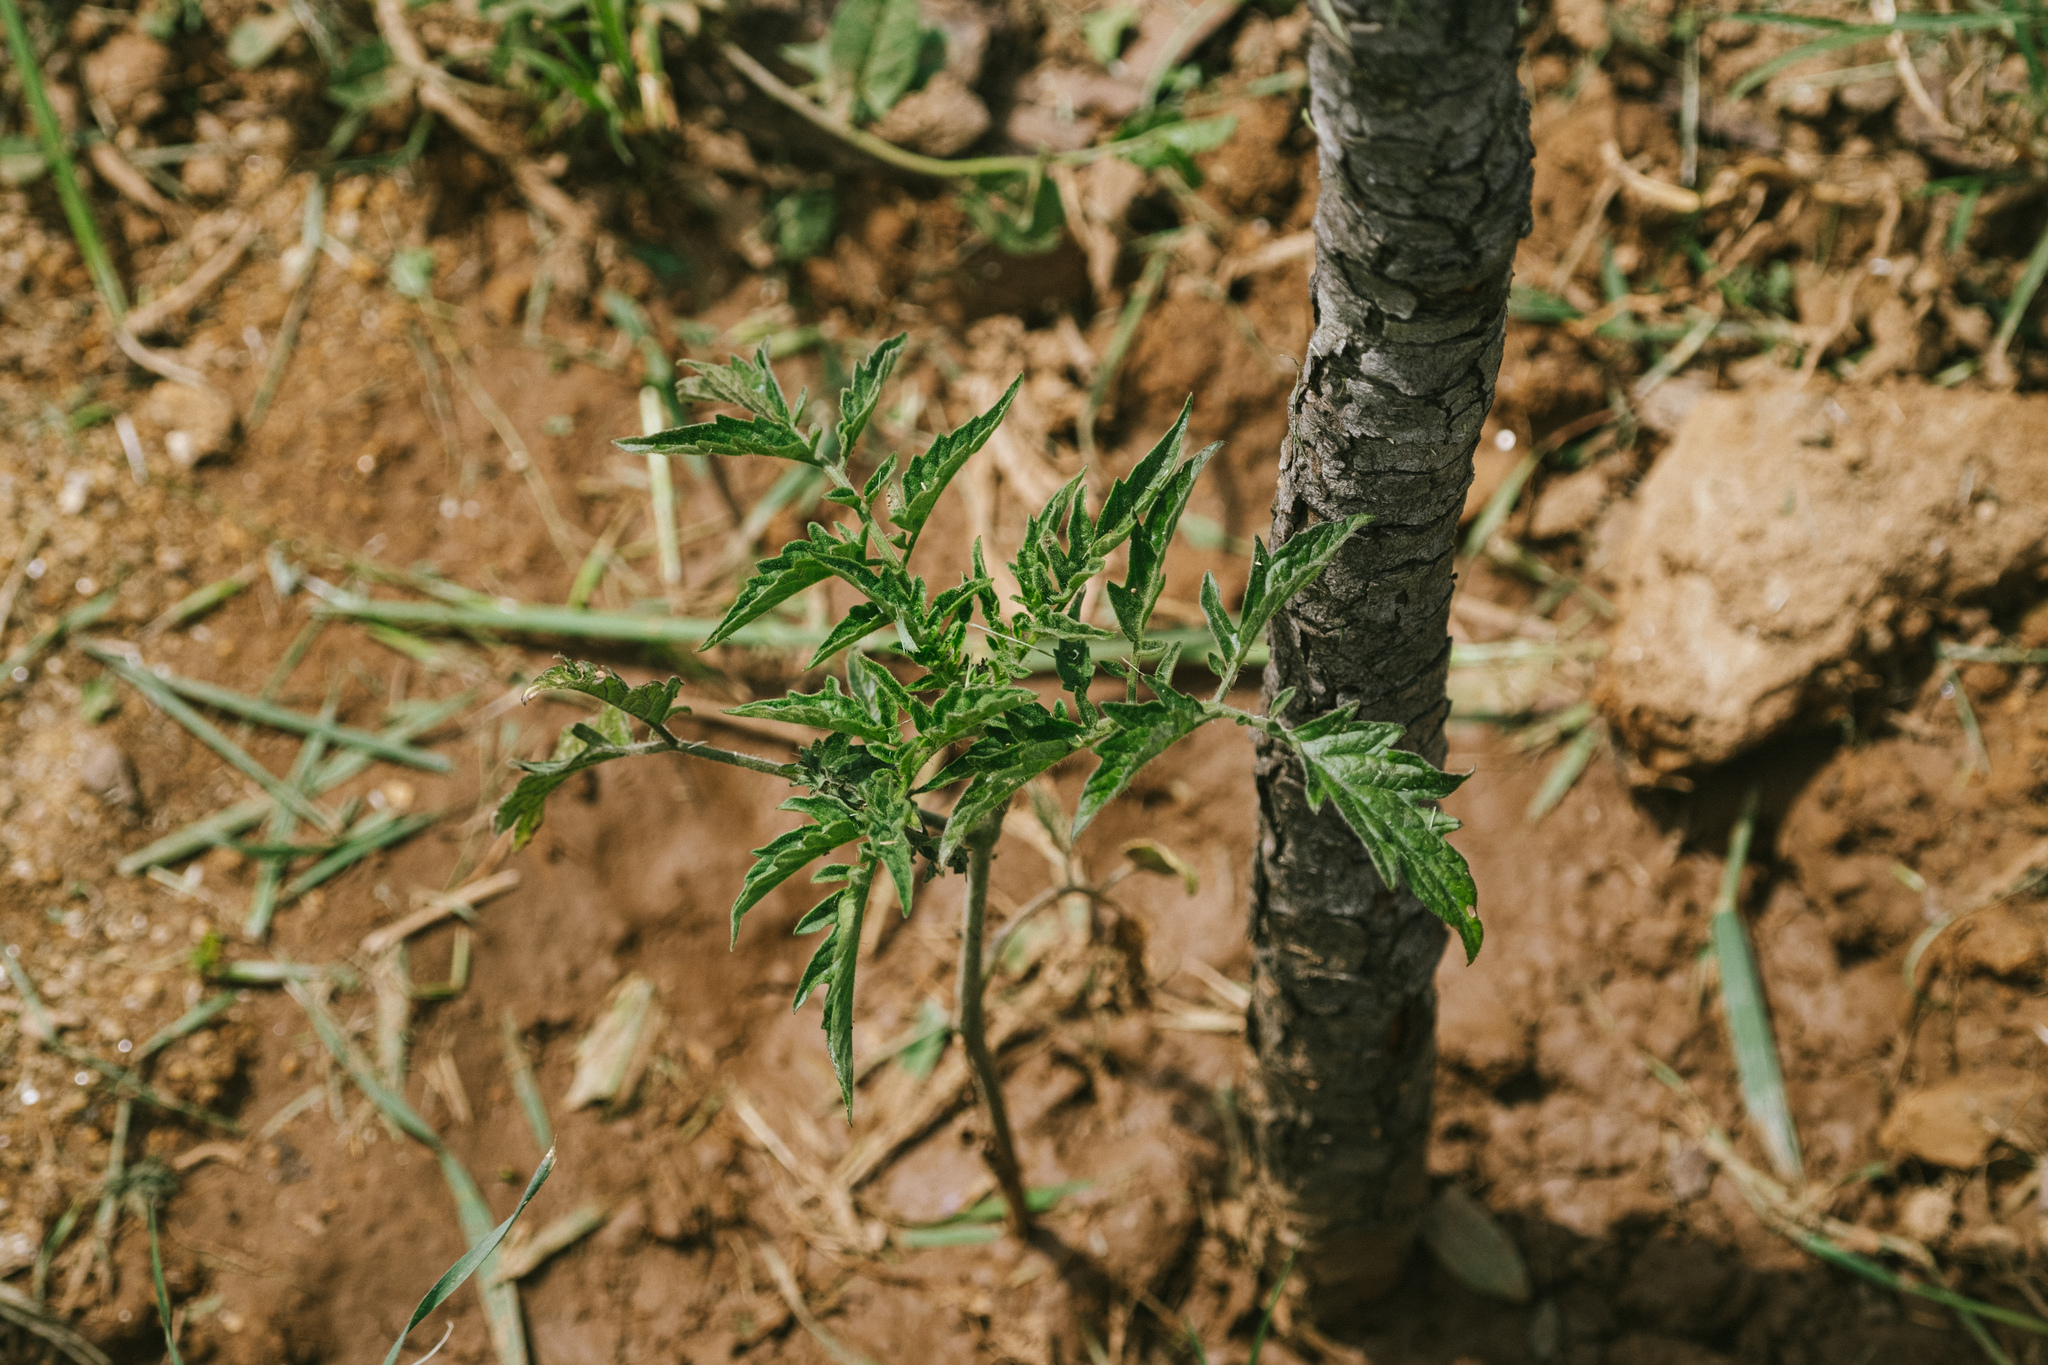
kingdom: Plantae
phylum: Tracheophyta
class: Magnoliopsida
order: Solanales
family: Solanaceae
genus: Solanum
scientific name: Solanum lycopersicum
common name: Garden tomato
